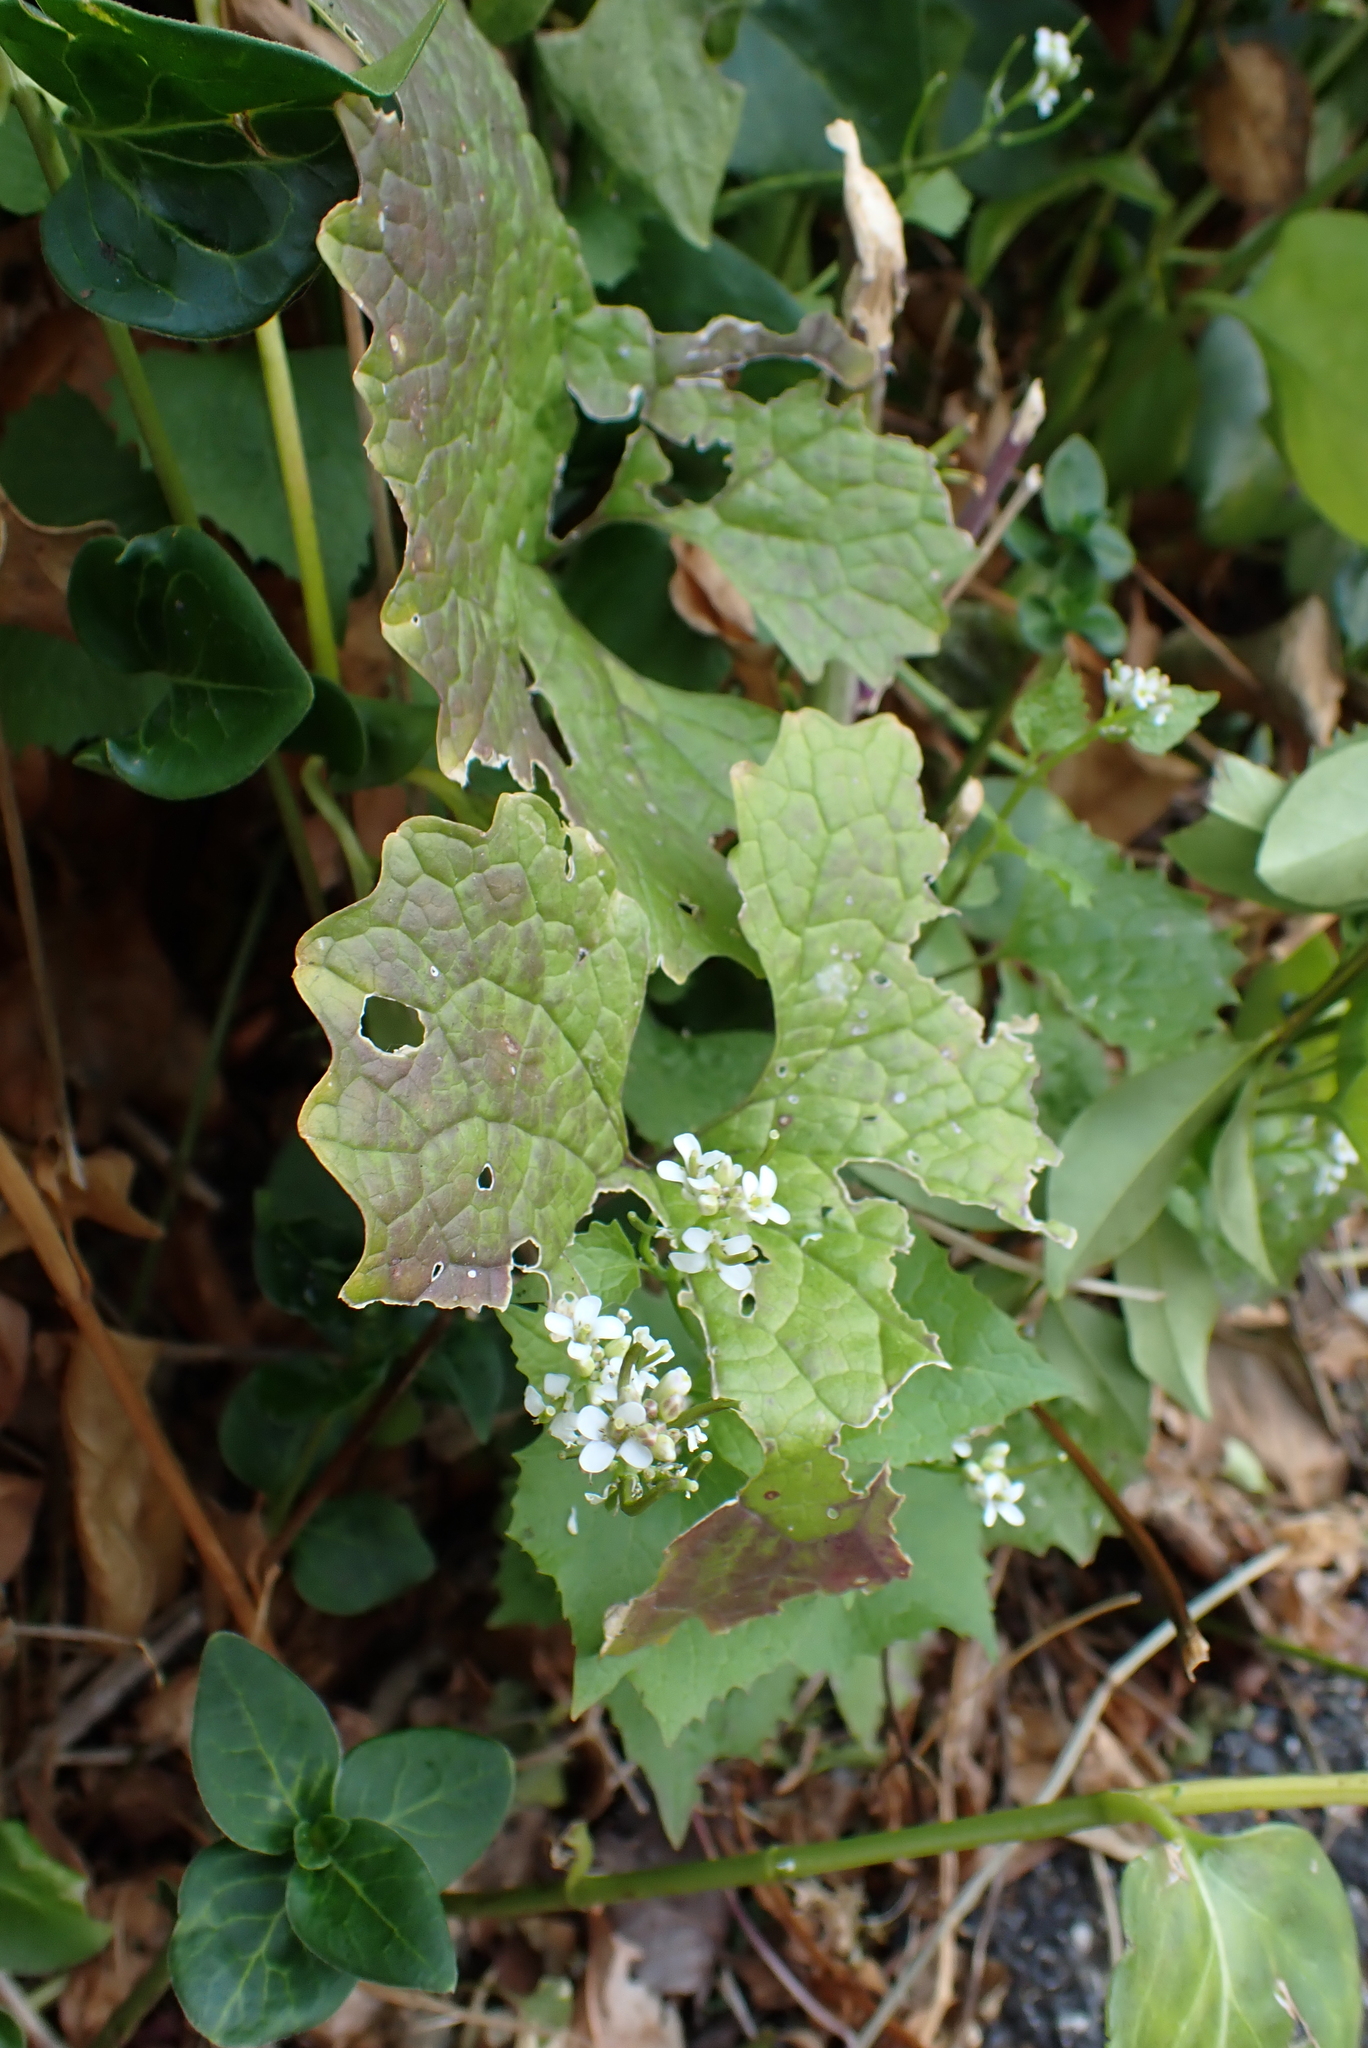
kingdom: Plantae
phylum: Tracheophyta
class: Magnoliopsida
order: Brassicales
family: Brassicaceae
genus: Alliaria
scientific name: Alliaria petiolata
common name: Garlic mustard
